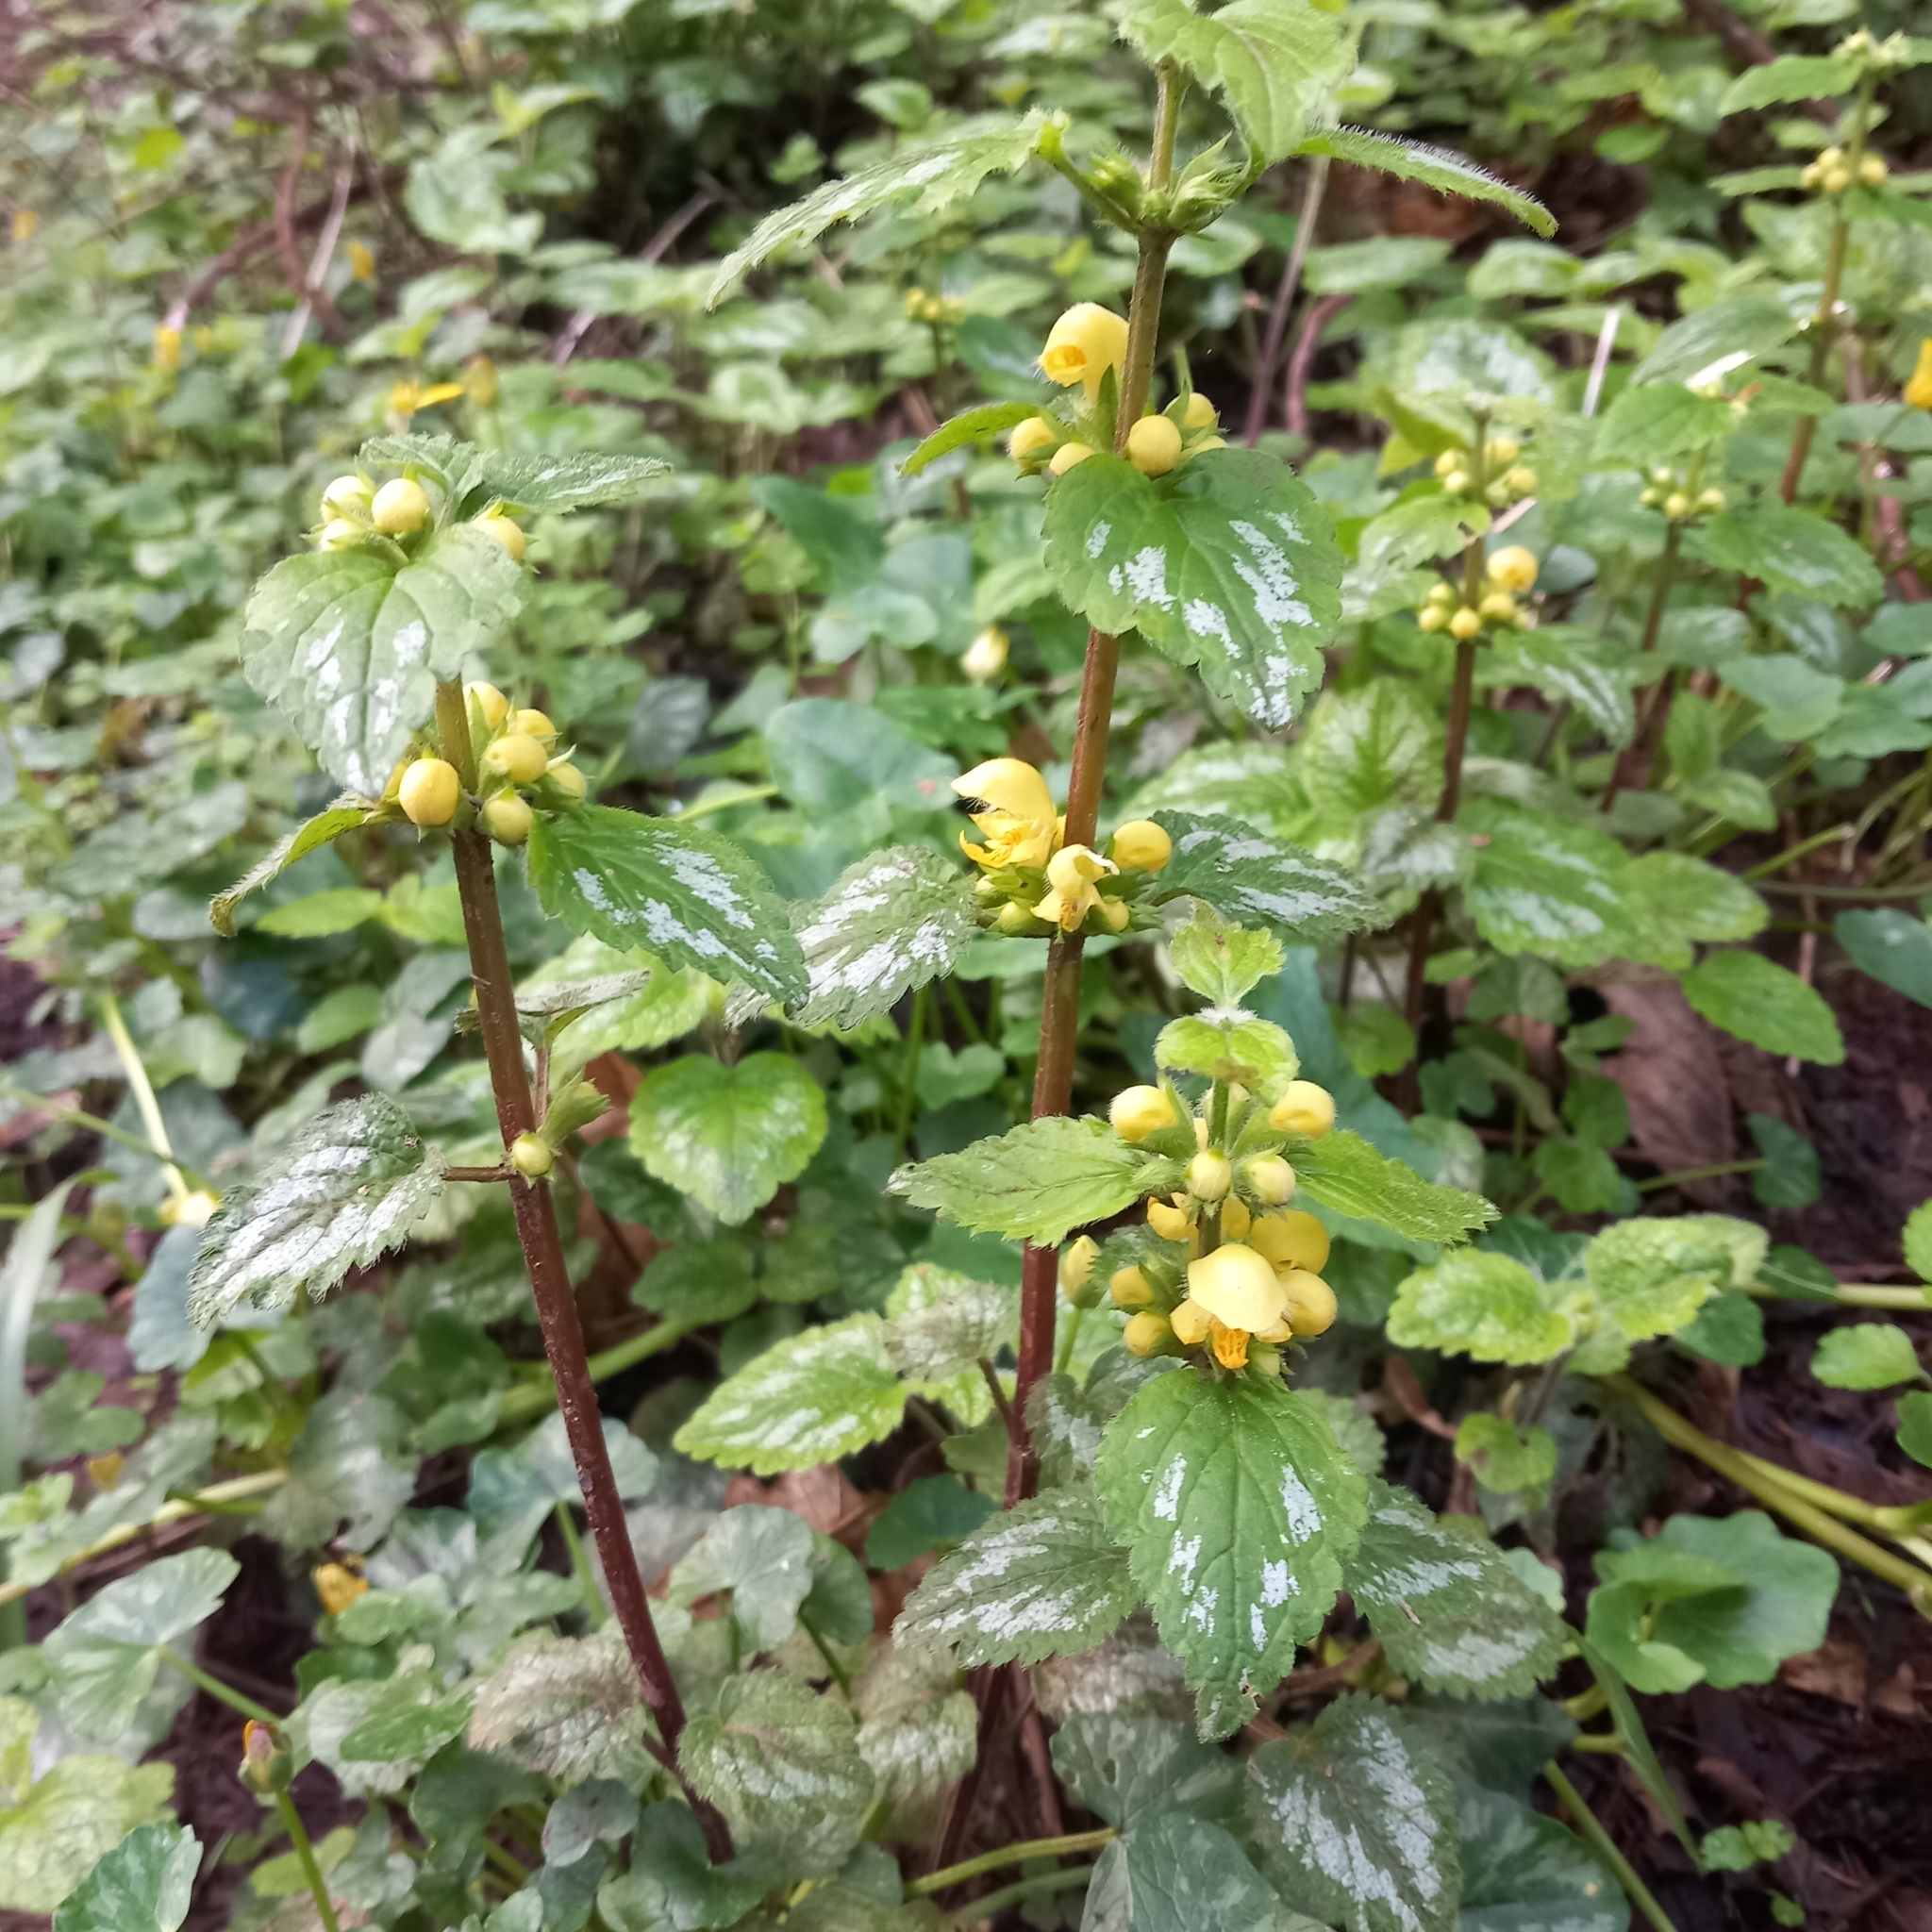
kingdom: Plantae
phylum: Tracheophyta
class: Magnoliopsida
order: Lamiales
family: Lamiaceae
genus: Lamium
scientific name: Lamium galeobdolon
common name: Yellow archangel
